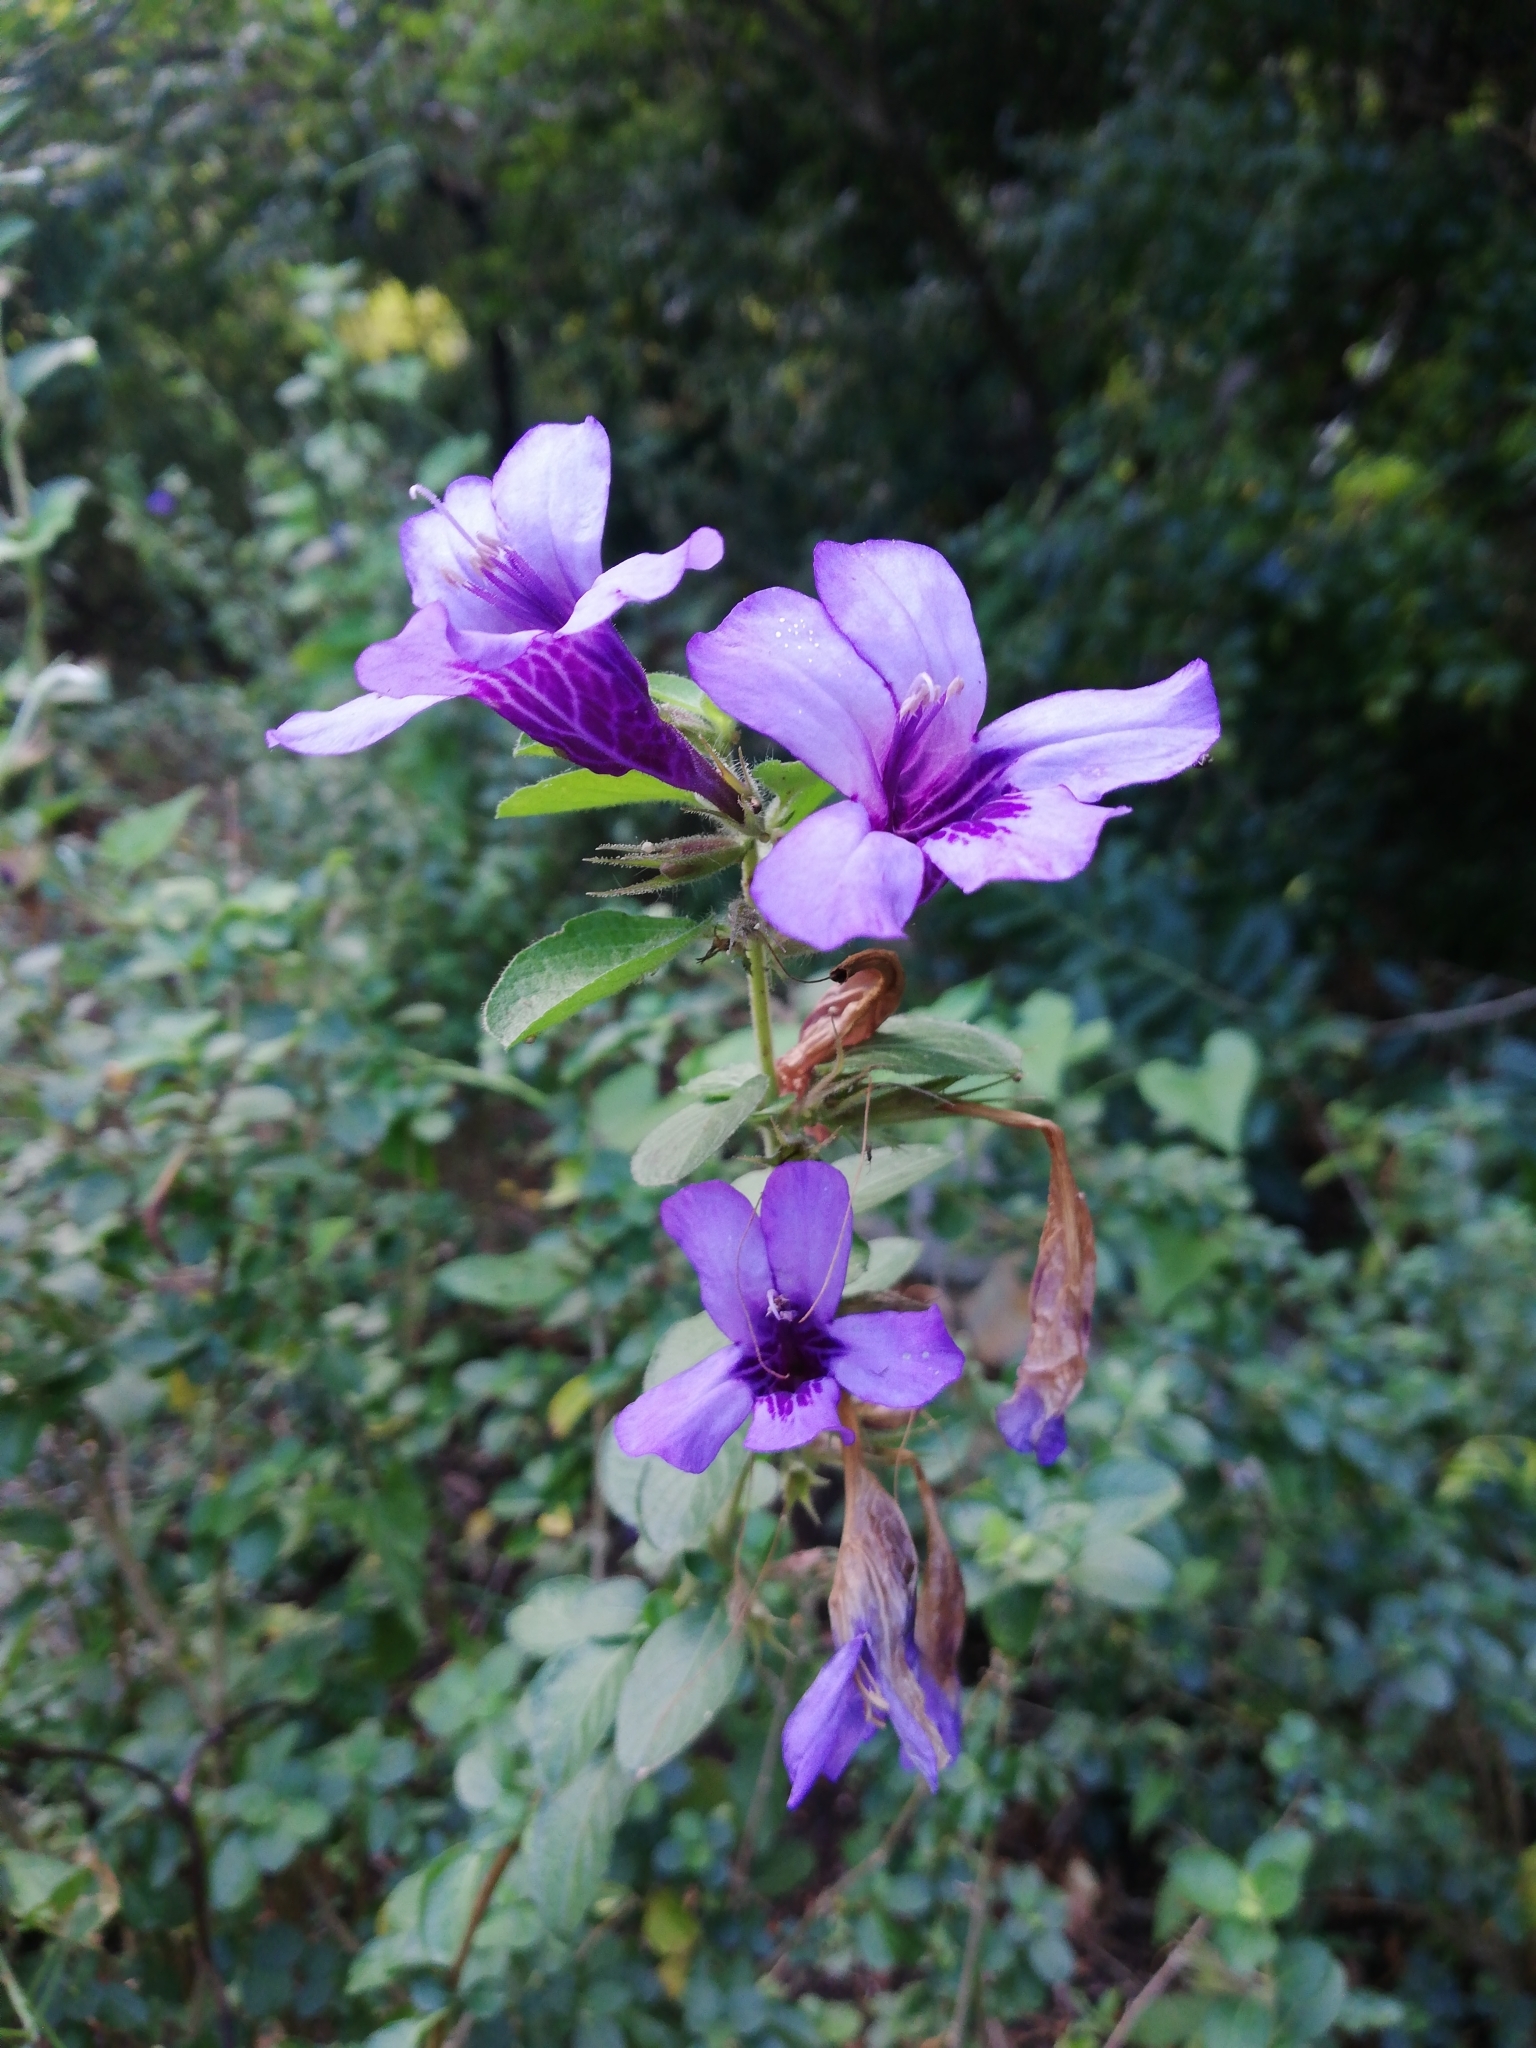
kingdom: Plantae
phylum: Tracheophyta
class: Magnoliopsida
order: Lamiales
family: Acanthaceae
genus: Dyschoriste
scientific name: Dyschoriste thunbergiiflora
